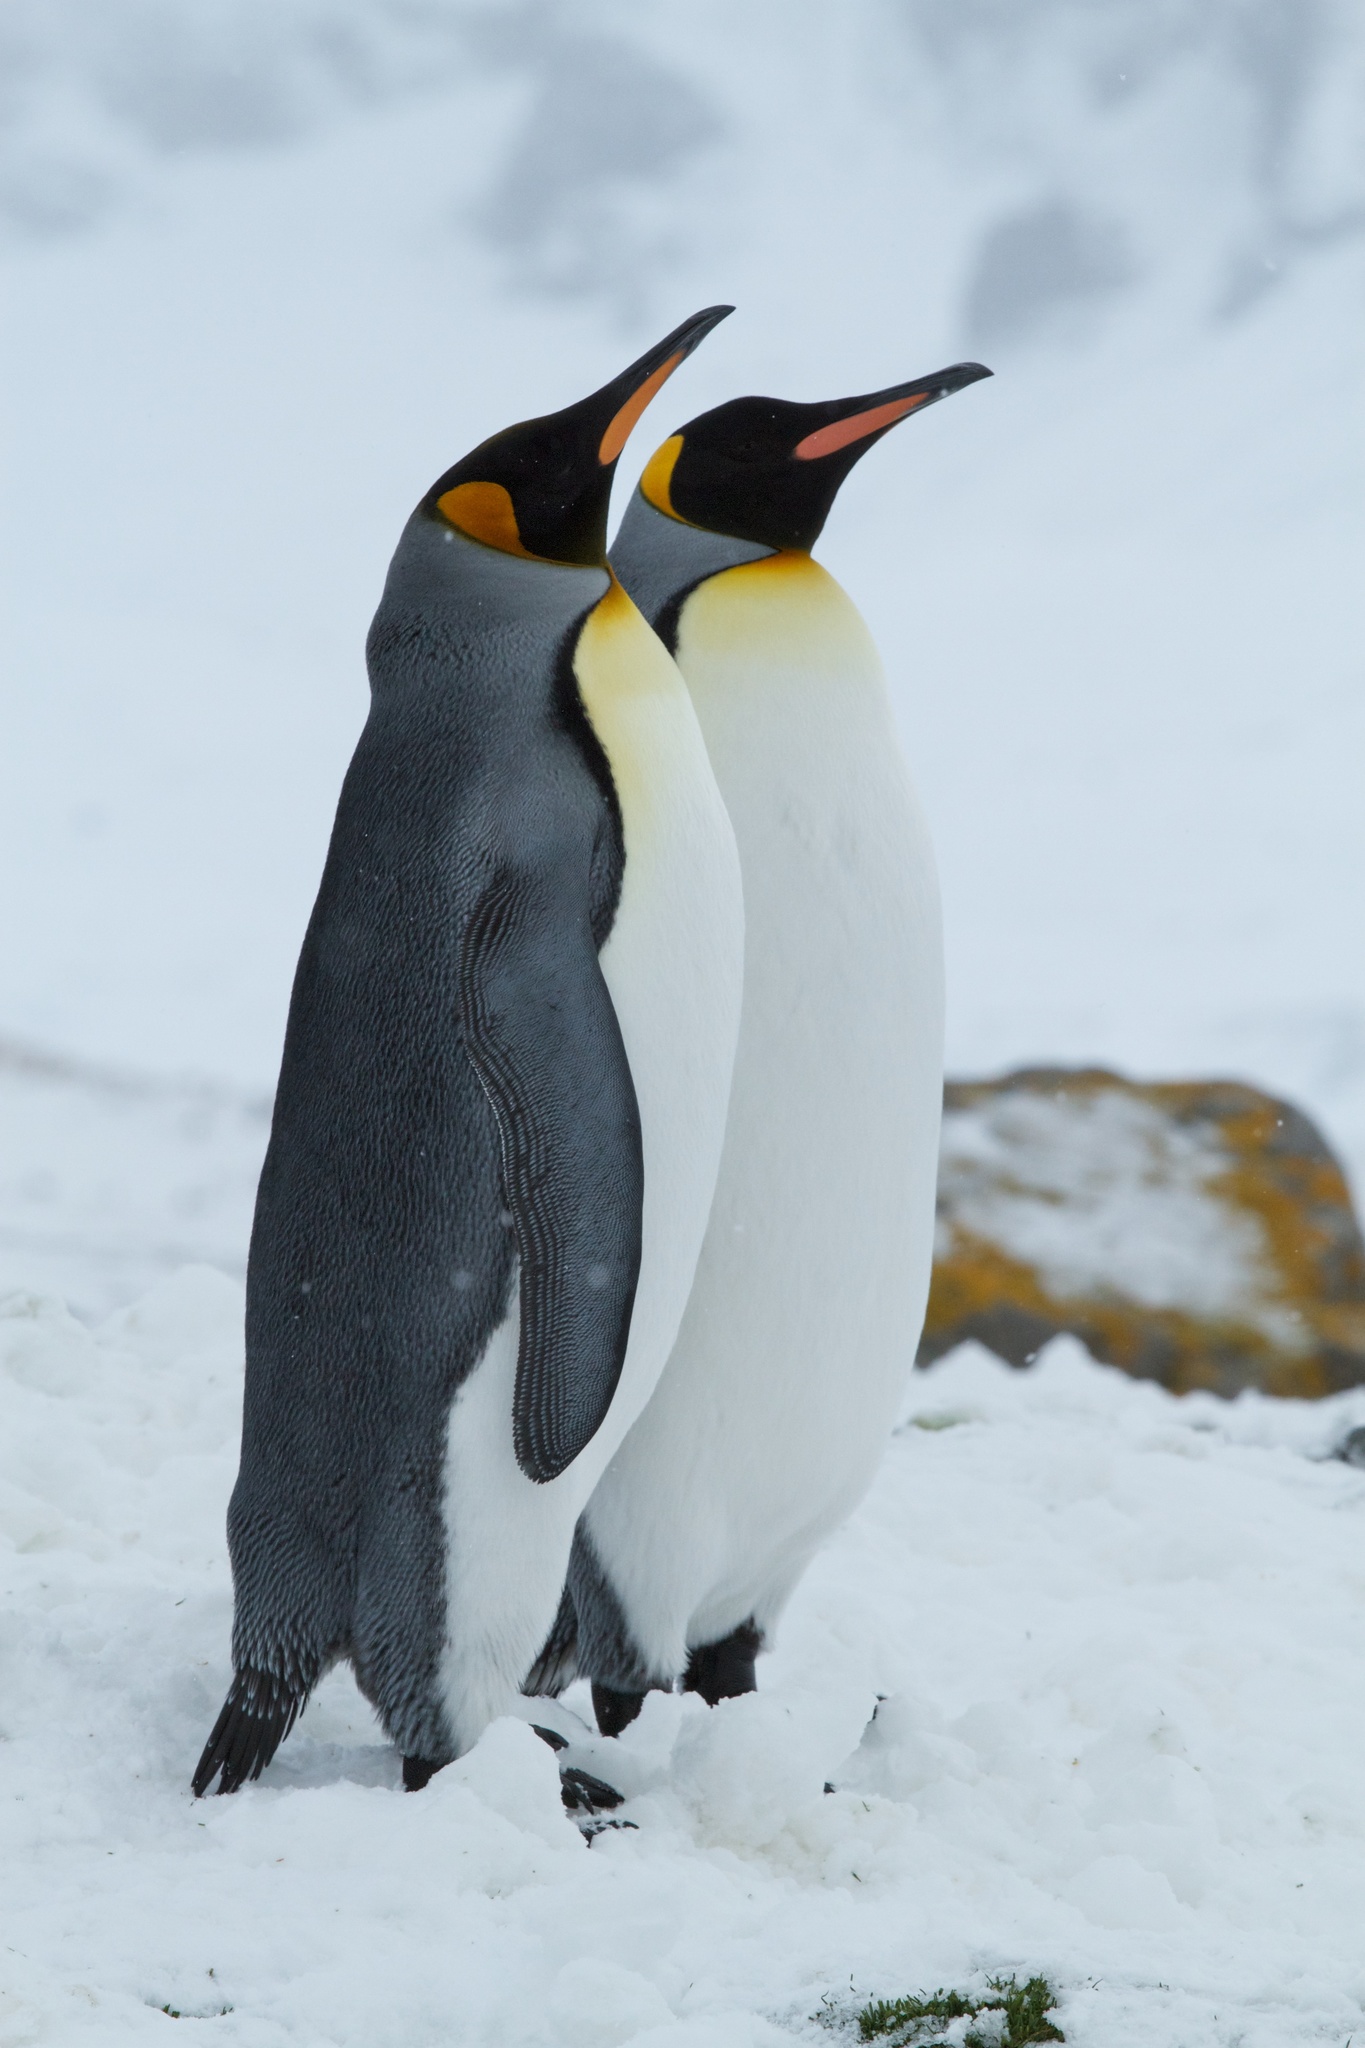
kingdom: Animalia
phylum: Chordata
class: Aves
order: Sphenisciformes
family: Spheniscidae
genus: Aptenodytes
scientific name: Aptenodytes patagonicus
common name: King penguin
